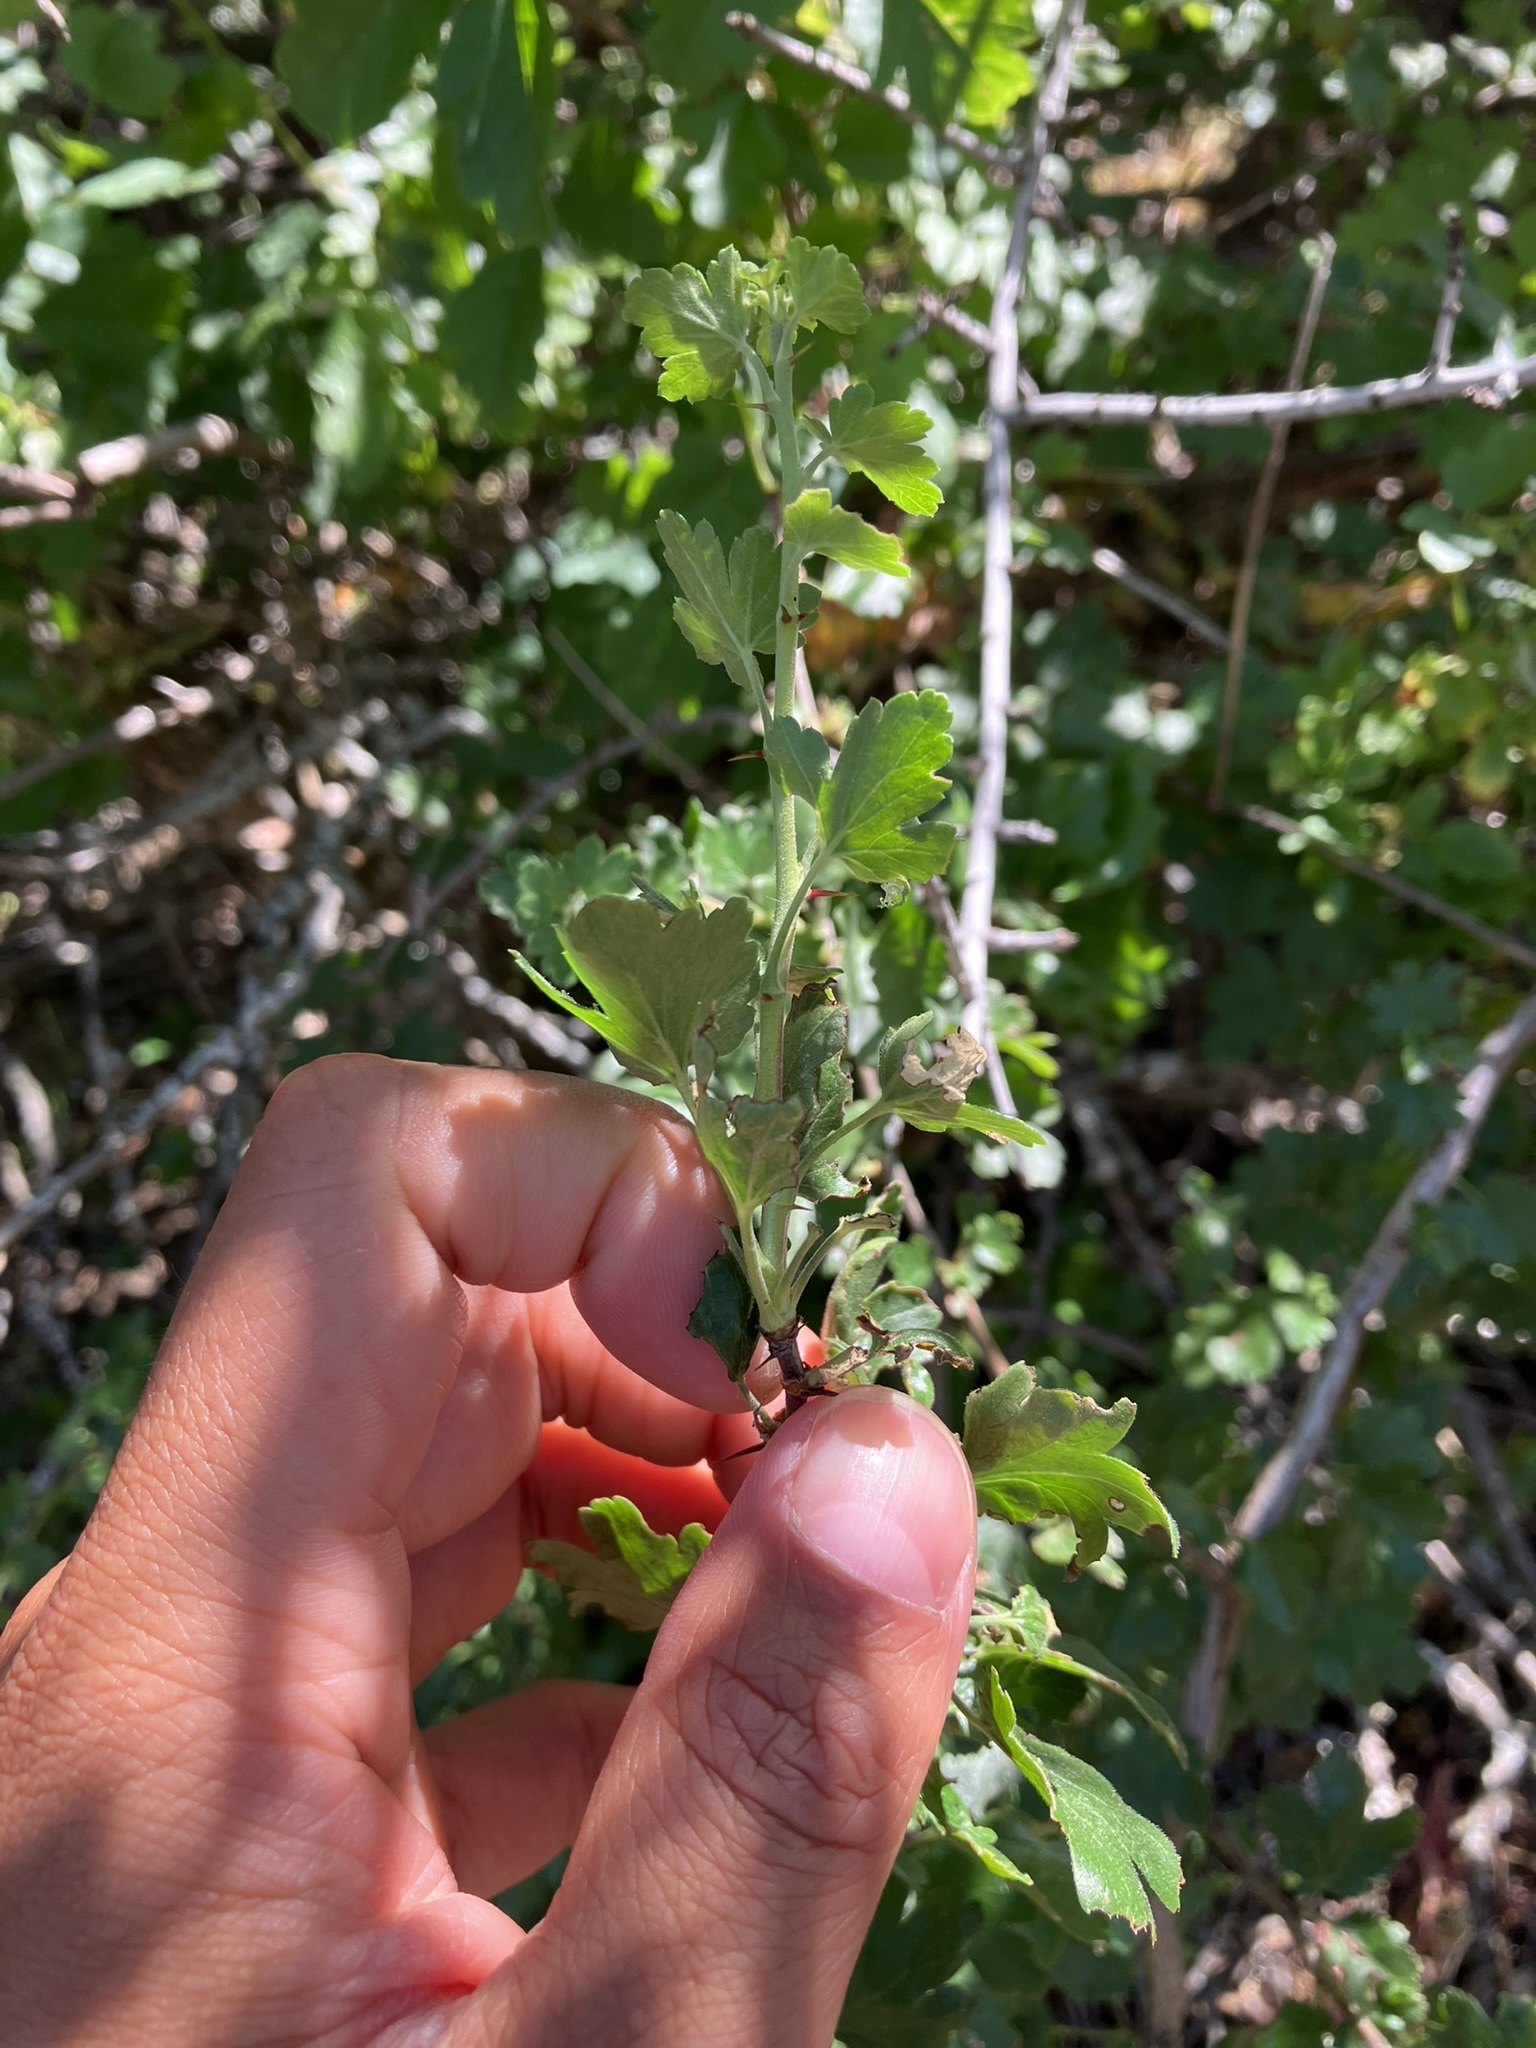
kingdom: Plantae
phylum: Tracheophyta
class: Magnoliopsida
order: Saxifragales
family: Grossulariaceae
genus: Ribes
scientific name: Ribes quercetorum
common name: Oak gooseberry
